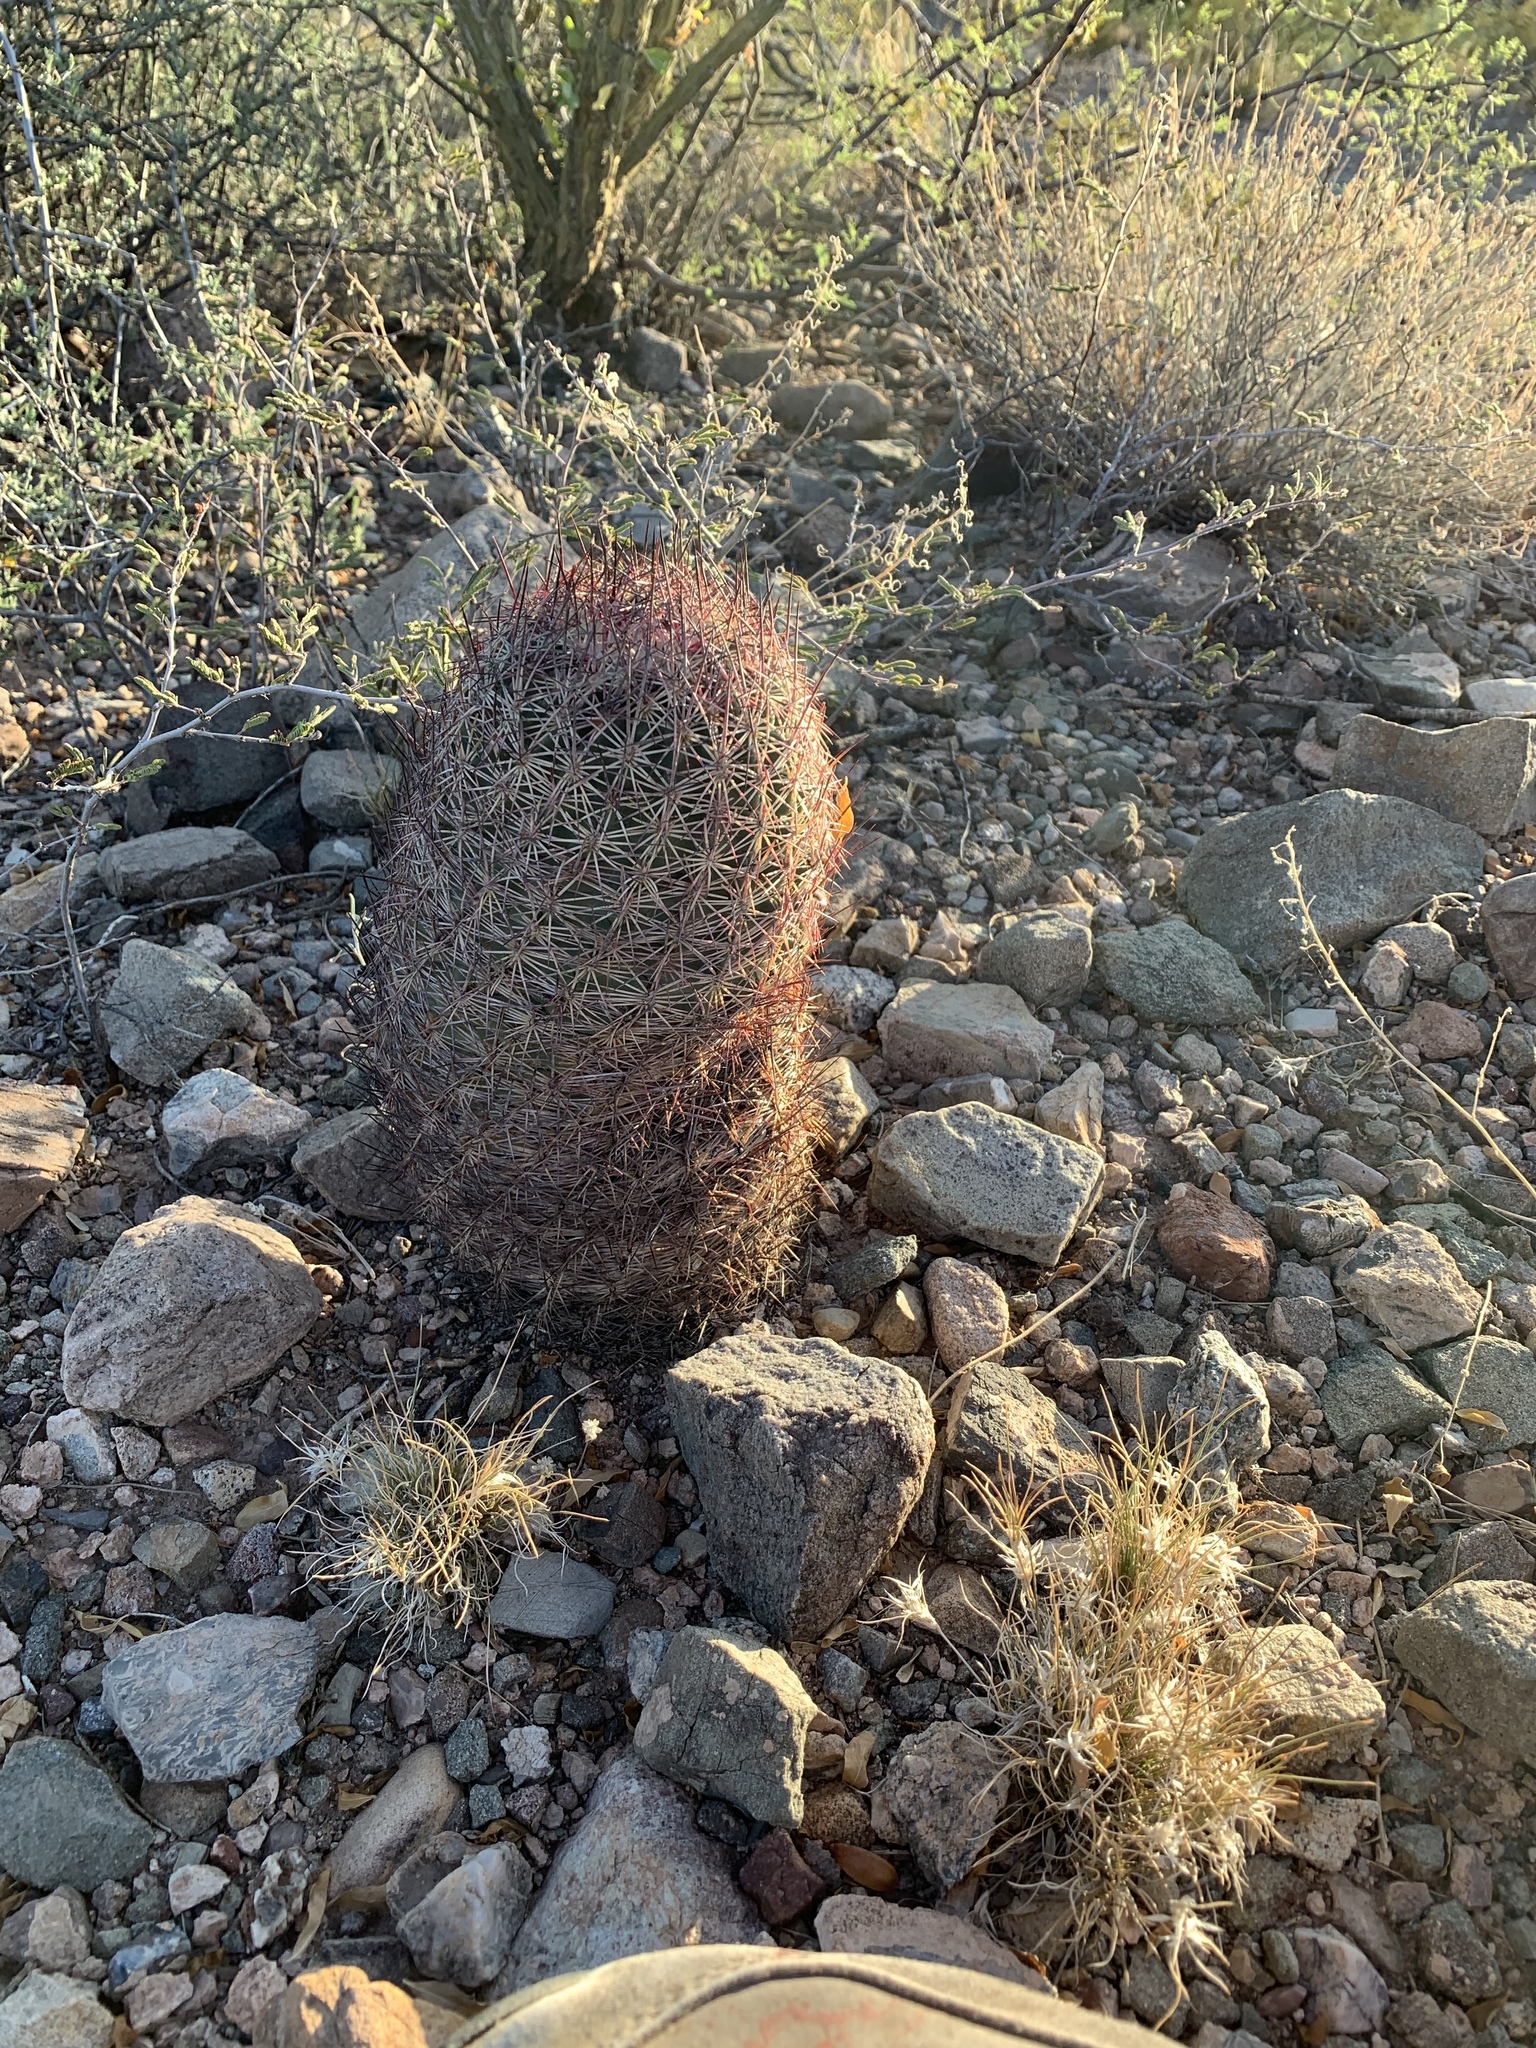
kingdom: Plantae
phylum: Tracheophyta
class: Magnoliopsida
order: Caryophyllales
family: Cactaceae
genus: Sclerocactus
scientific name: Sclerocactus johnsonii
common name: Eight-spine fishhook cactus
